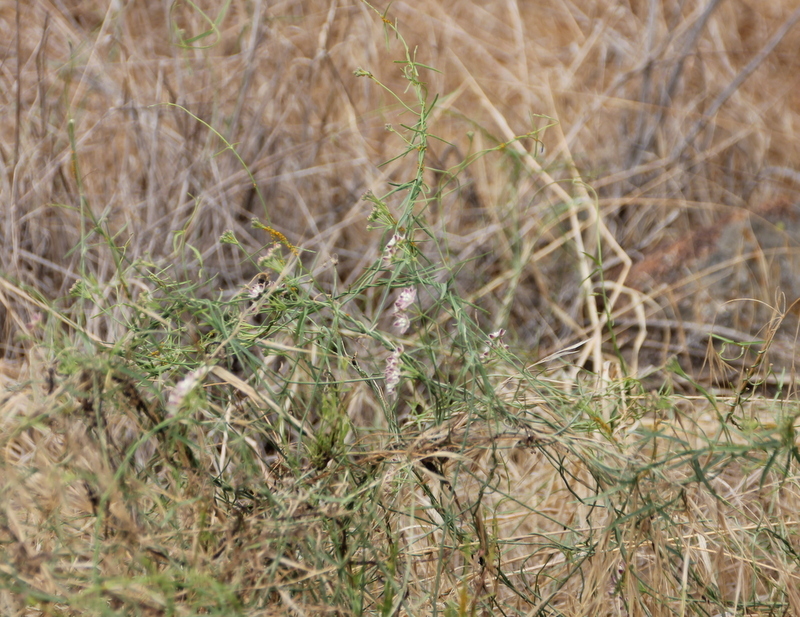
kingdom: Plantae
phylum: Tracheophyta
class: Magnoliopsida
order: Gentianales
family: Apocynaceae
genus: Funastrum
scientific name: Funastrum heterophyllum
